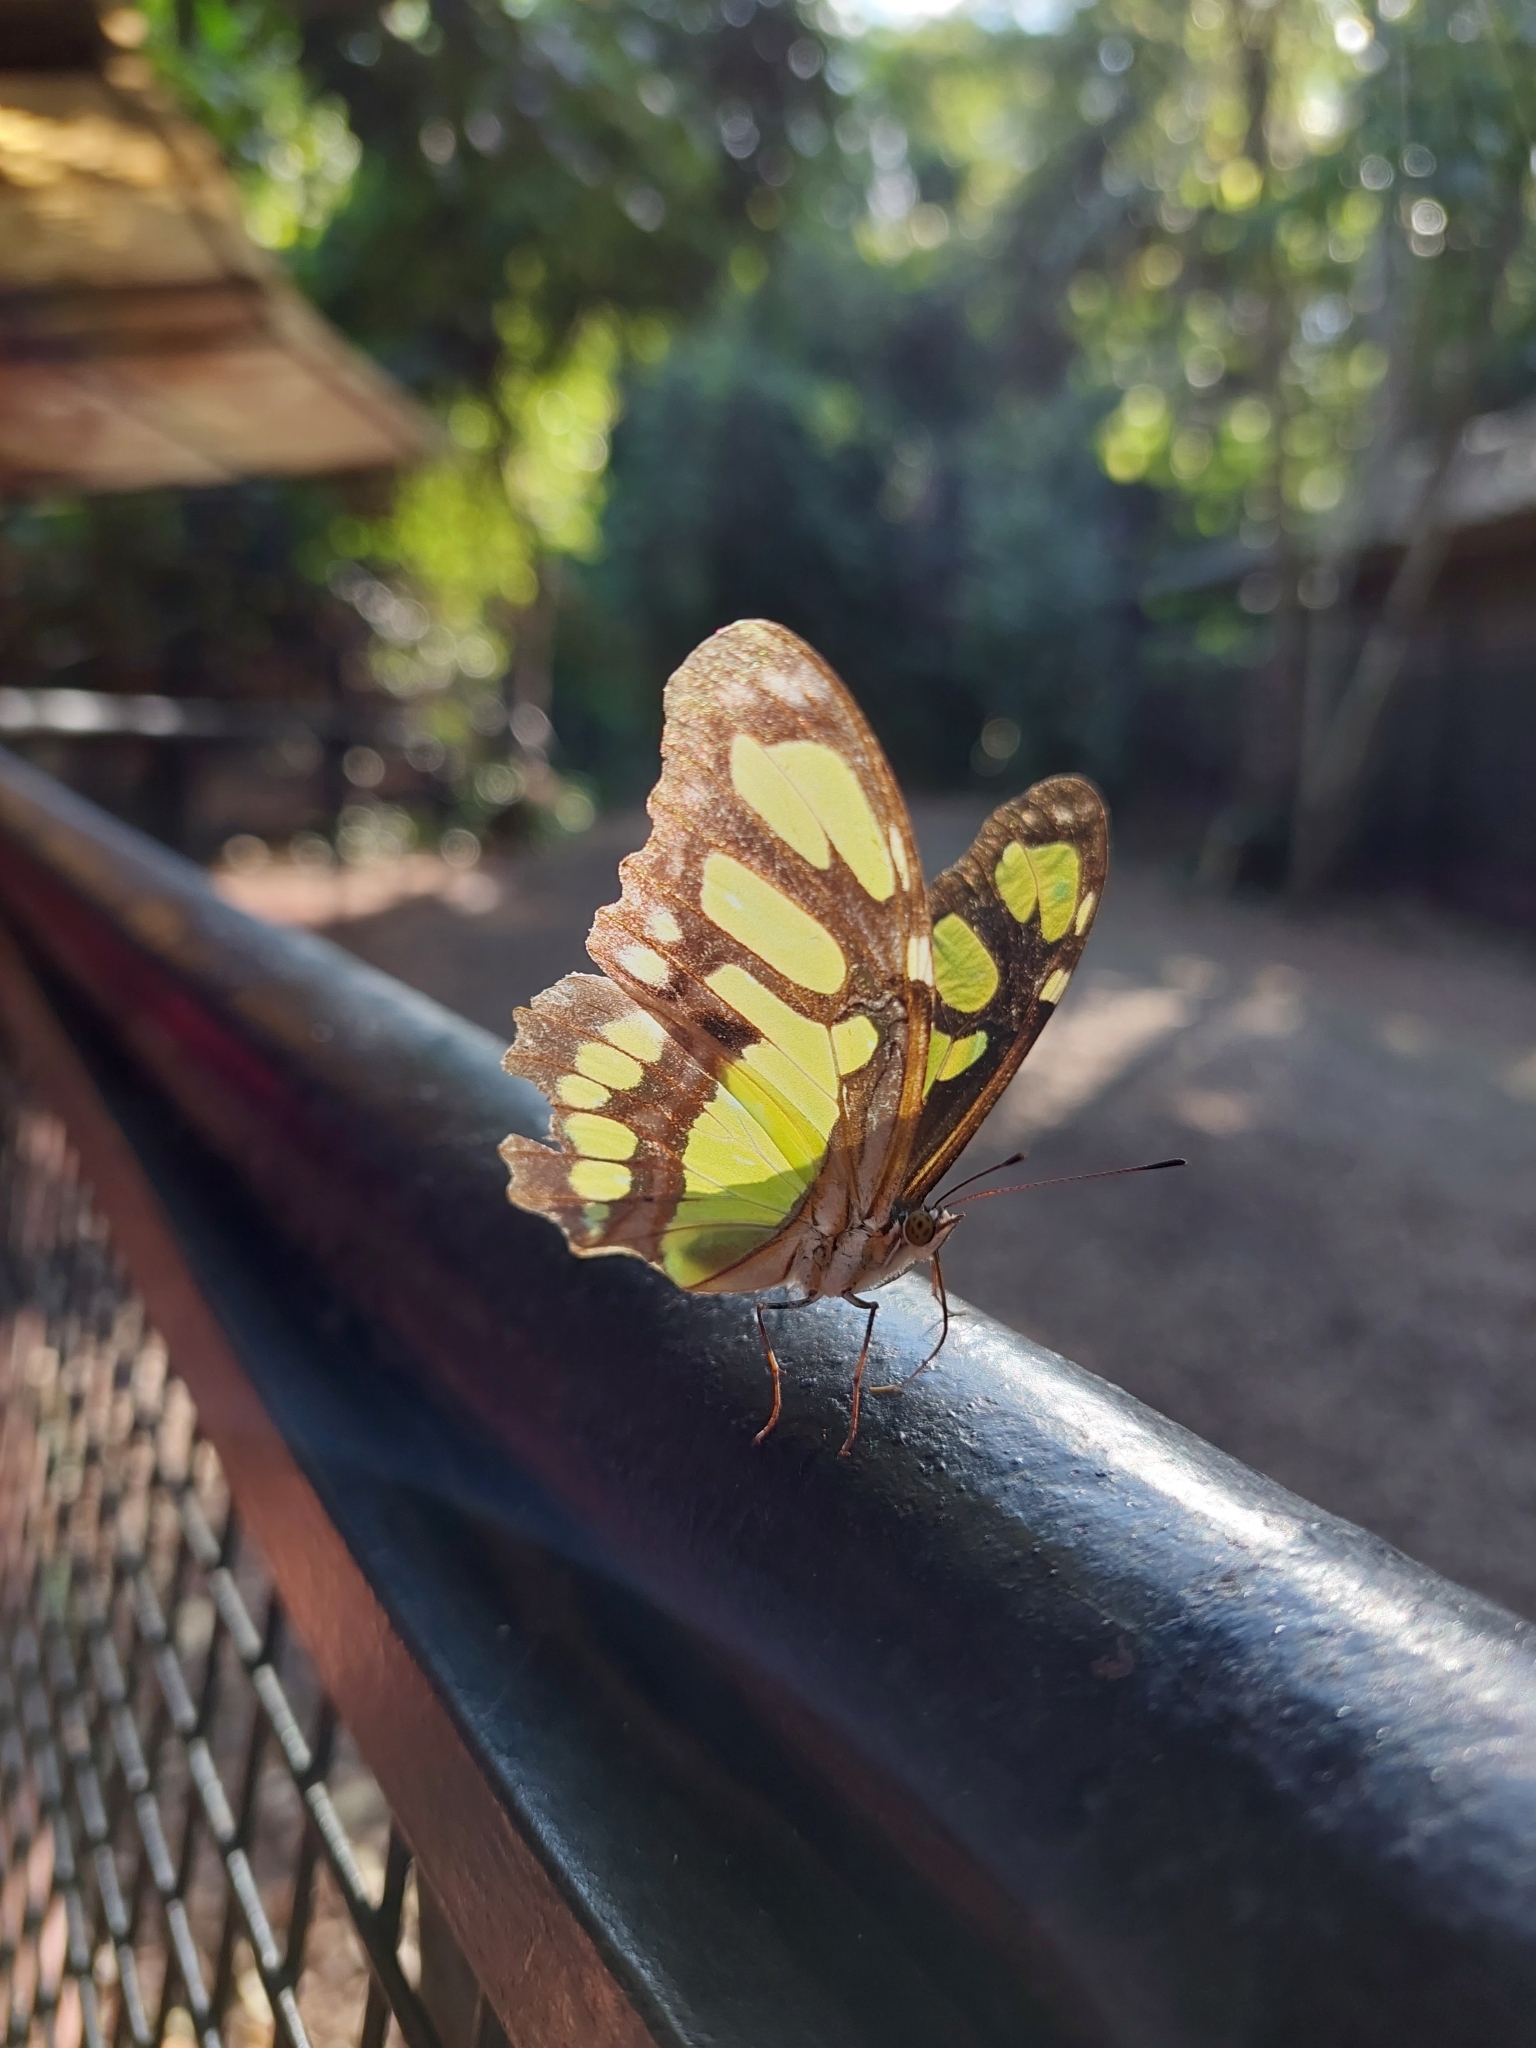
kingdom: Animalia
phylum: Arthropoda
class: Insecta
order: Lepidoptera
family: Nymphalidae
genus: Siproeta
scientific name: Siproeta stelenes
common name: Malachite
